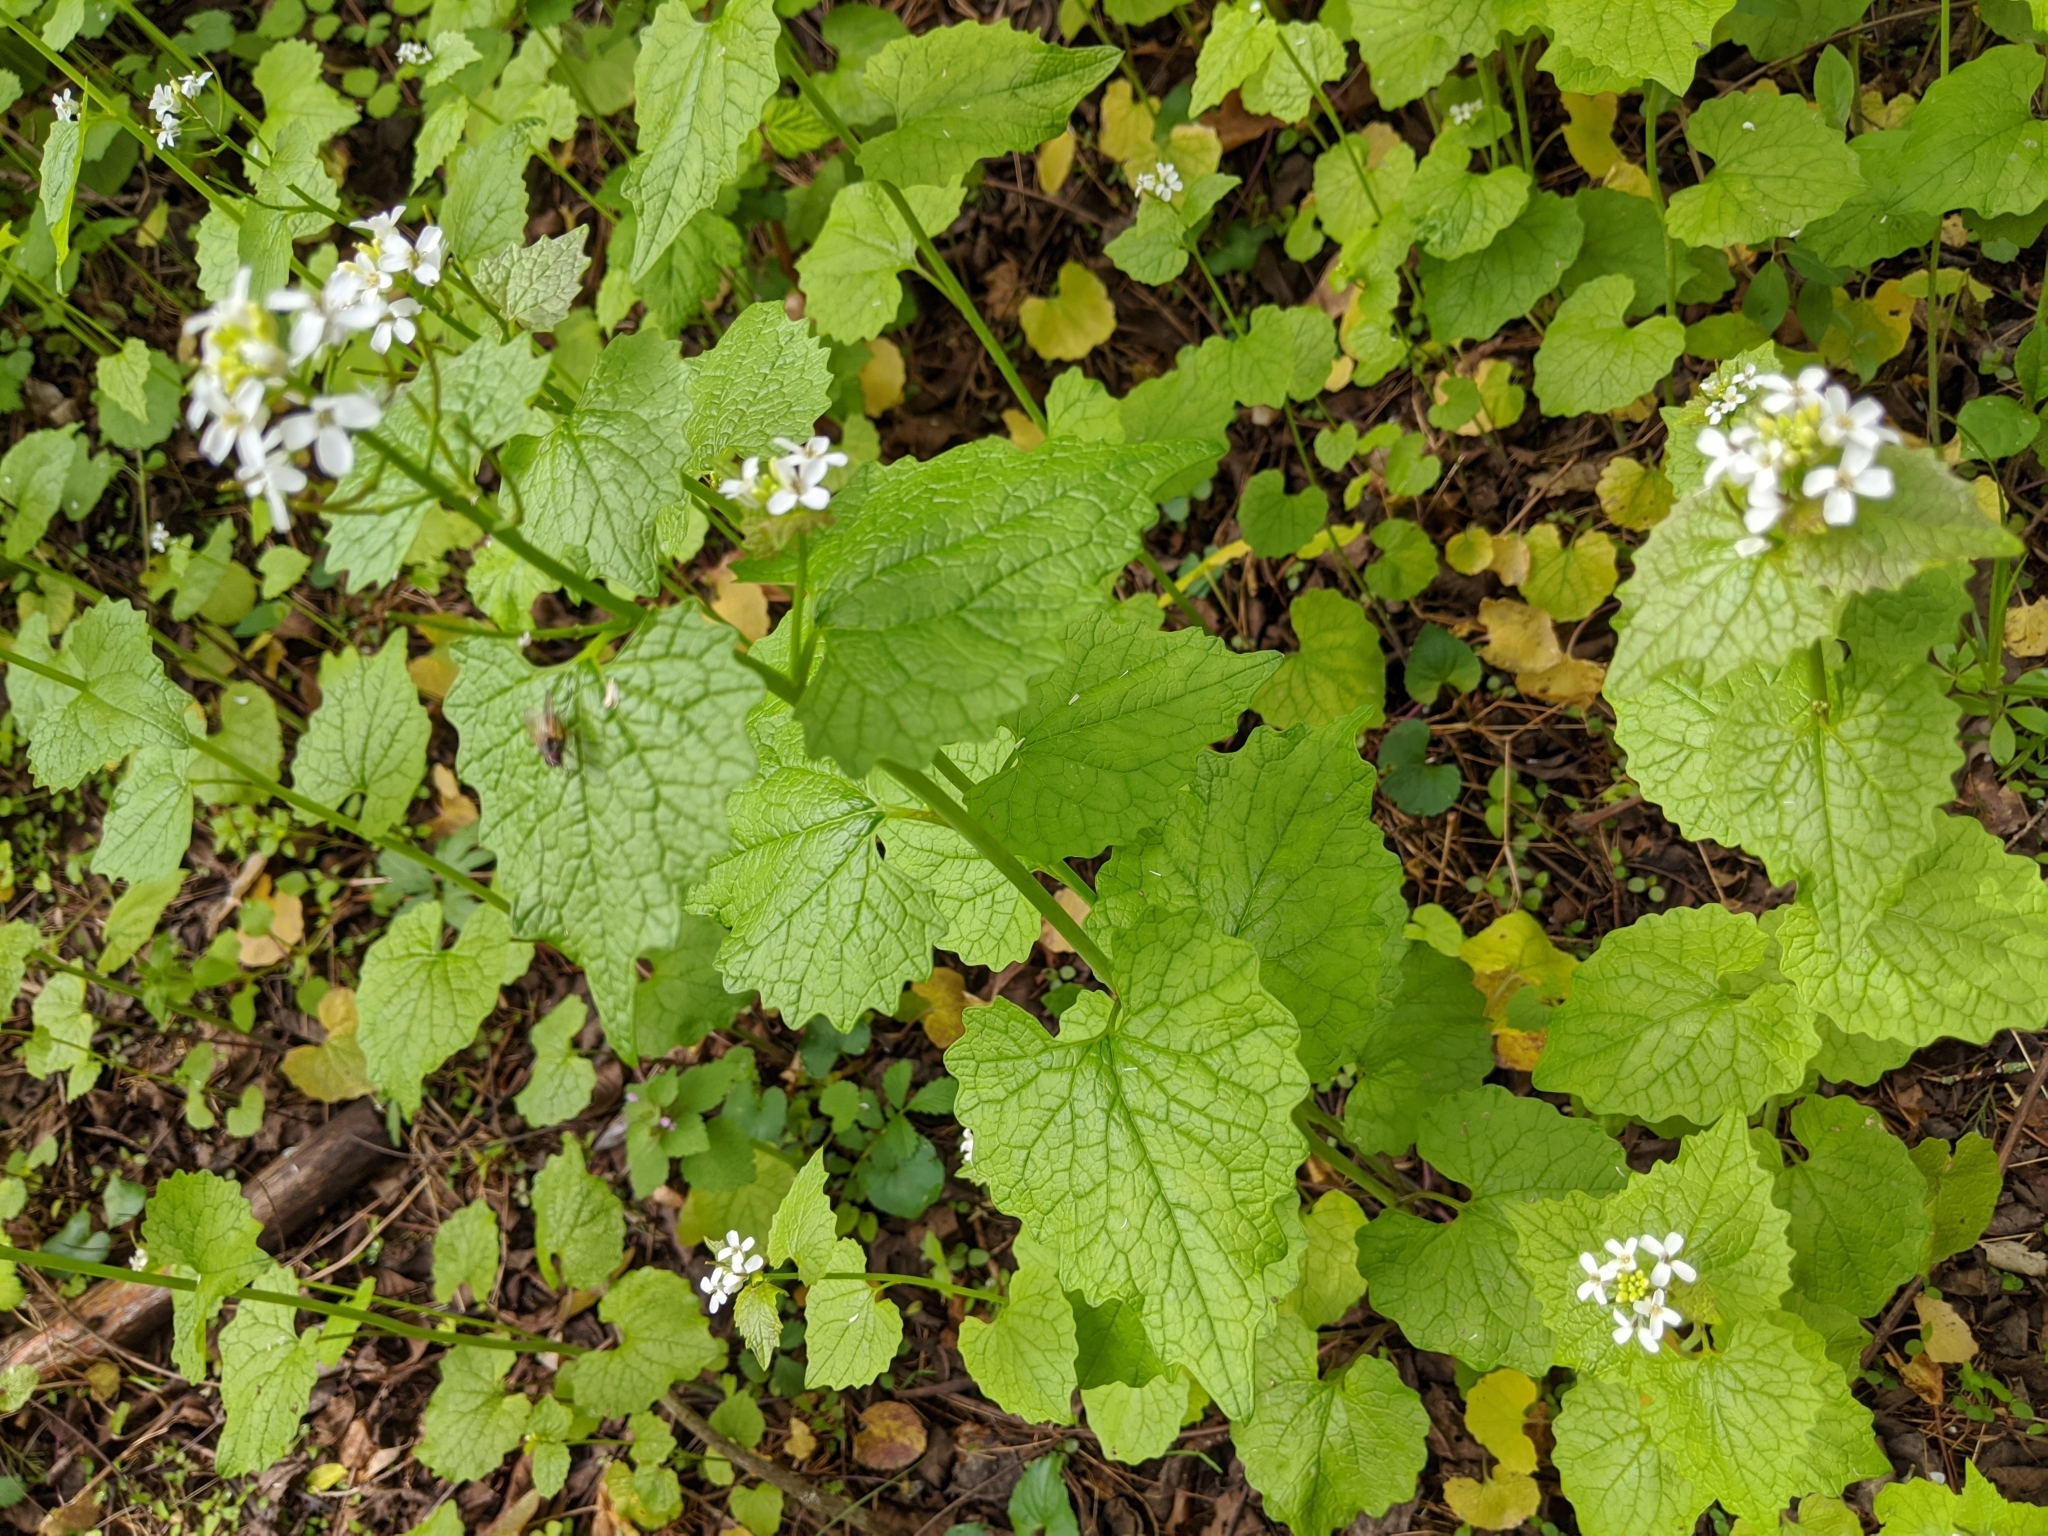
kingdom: Plantae
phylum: Tracheophyta
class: Magnoliopsida
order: Brassicales
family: Brassicaceae
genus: Alliaria
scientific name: Alliaria petiolata
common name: Garlic mustard
